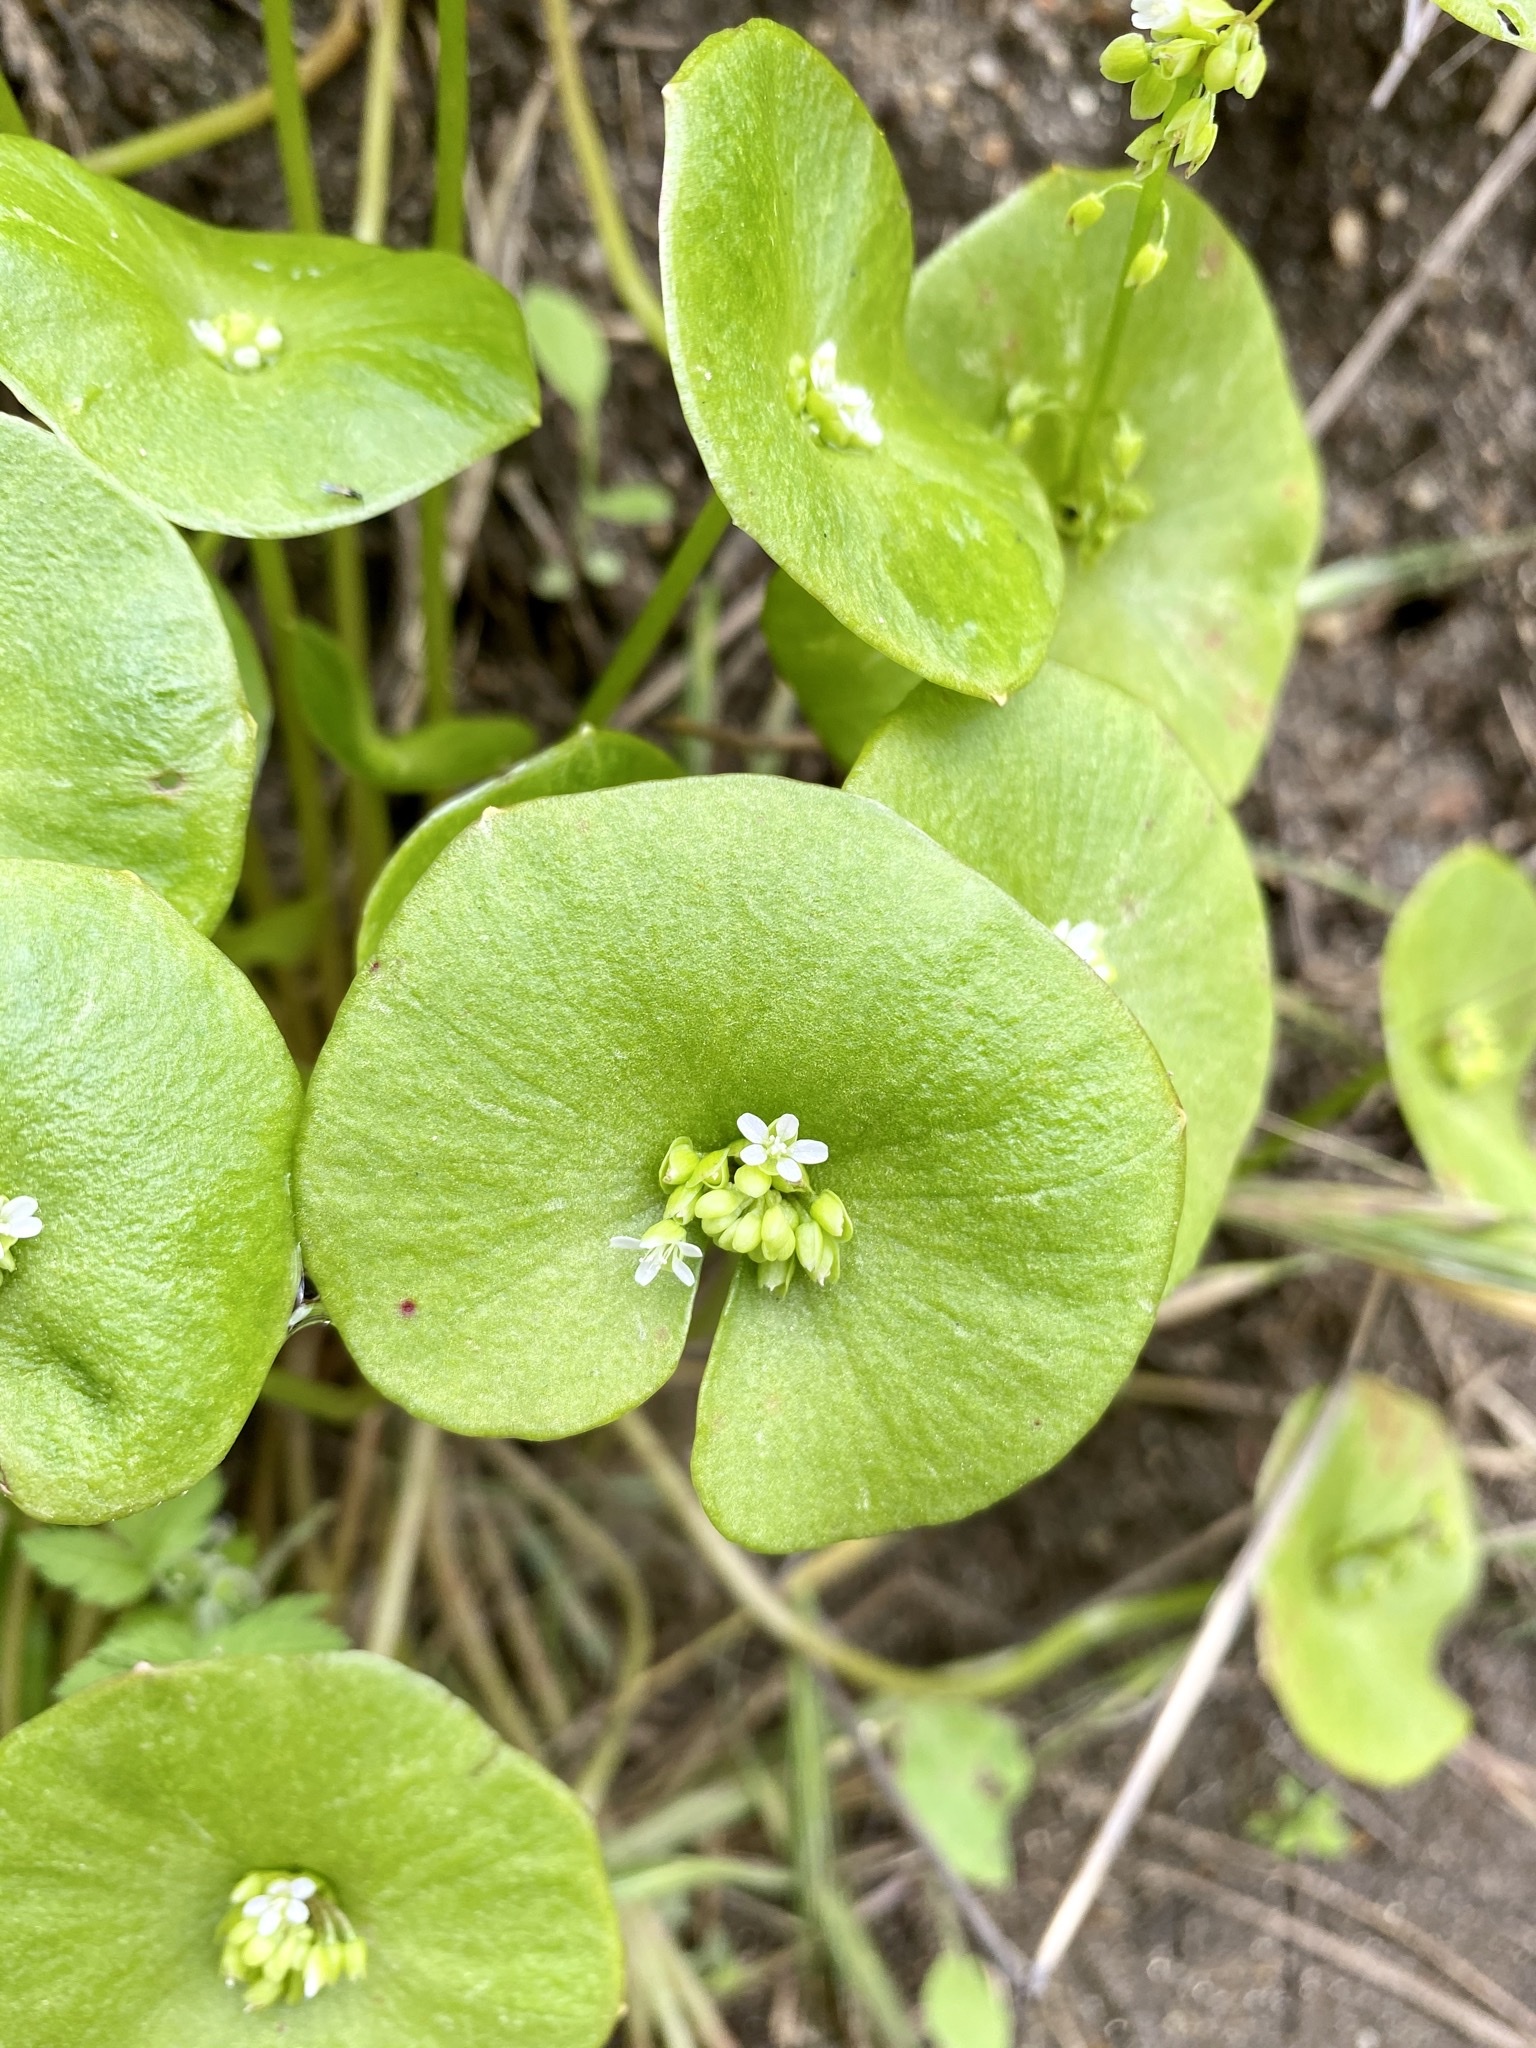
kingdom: Plantae
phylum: Tracheophyta
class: Magnoliopsida
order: Caryophyllales
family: Montiaceae
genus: Claytonia
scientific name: Claytonia perfoliata
